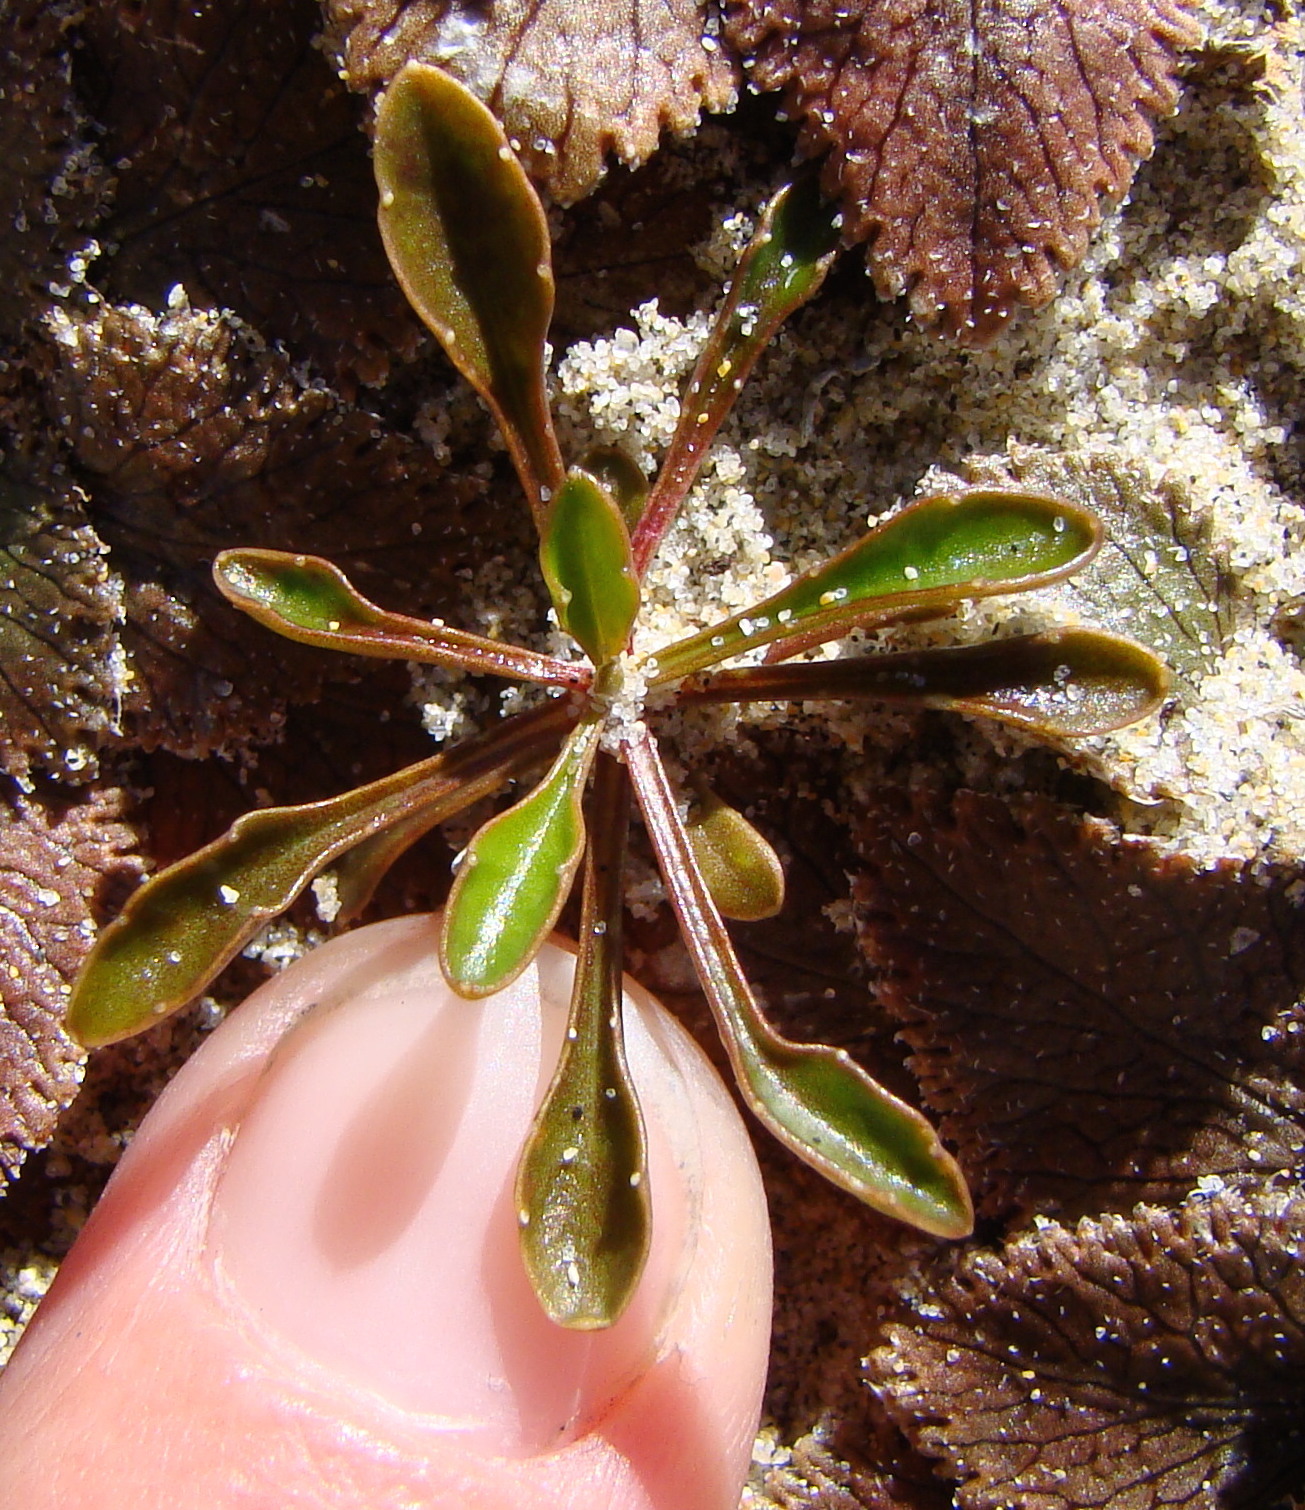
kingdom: Plantae
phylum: Tracheophyta
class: Magnoliopsida
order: Asterales
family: Campanulaceae
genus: Wahlenbergia
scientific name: Wahlenbergia albomarginata
